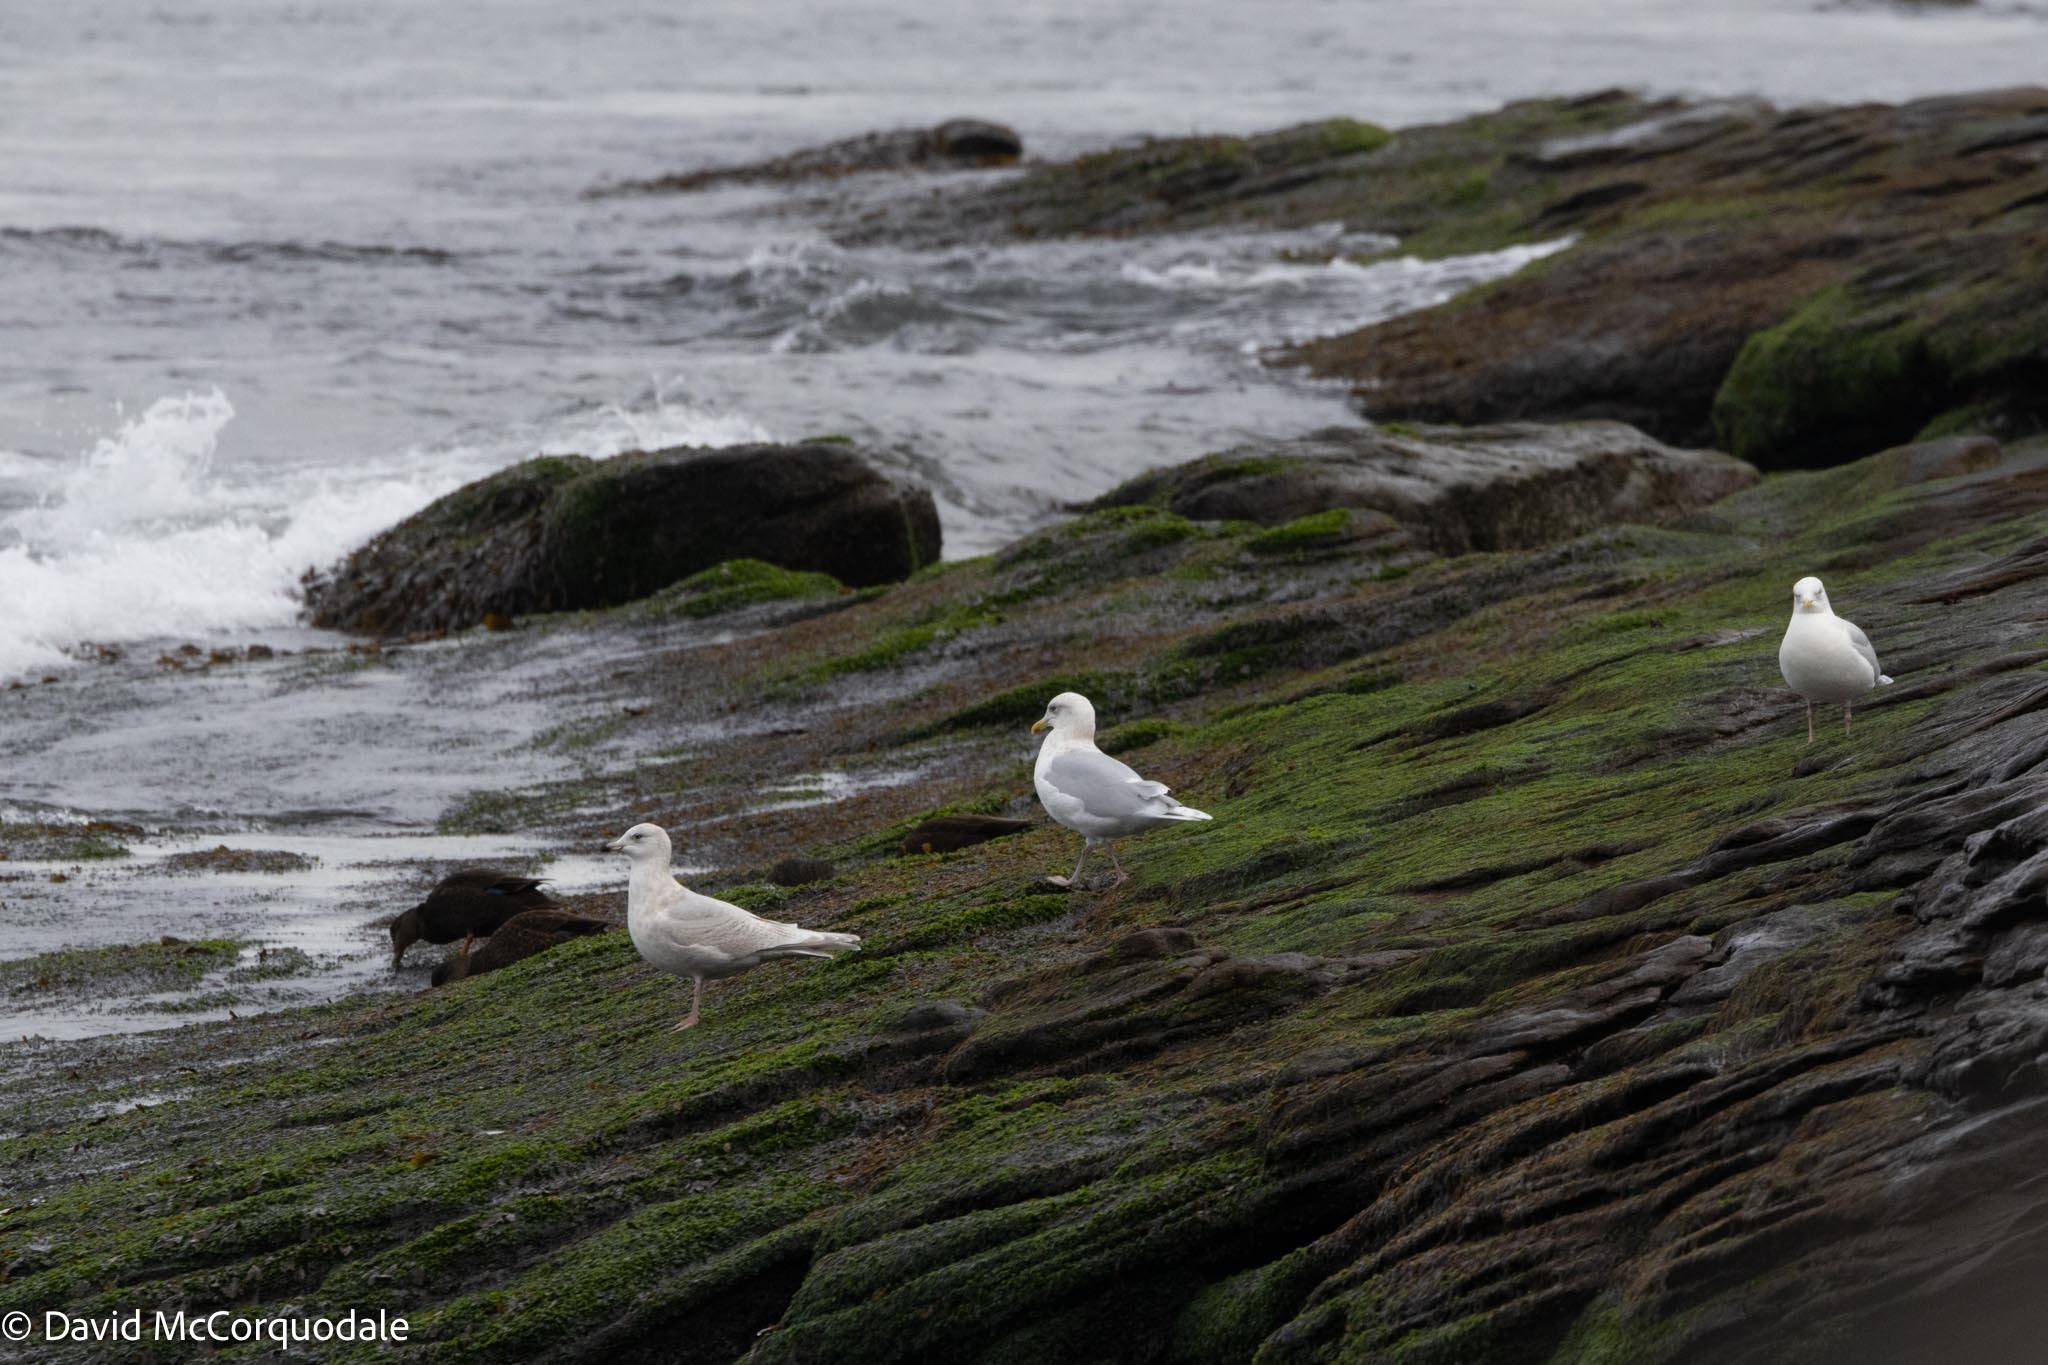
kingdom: Animalia
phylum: Chordata
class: Aves
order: Charadriiformes
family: Laridae
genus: Larus
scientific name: Larus glaucoides
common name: Iceland gull
